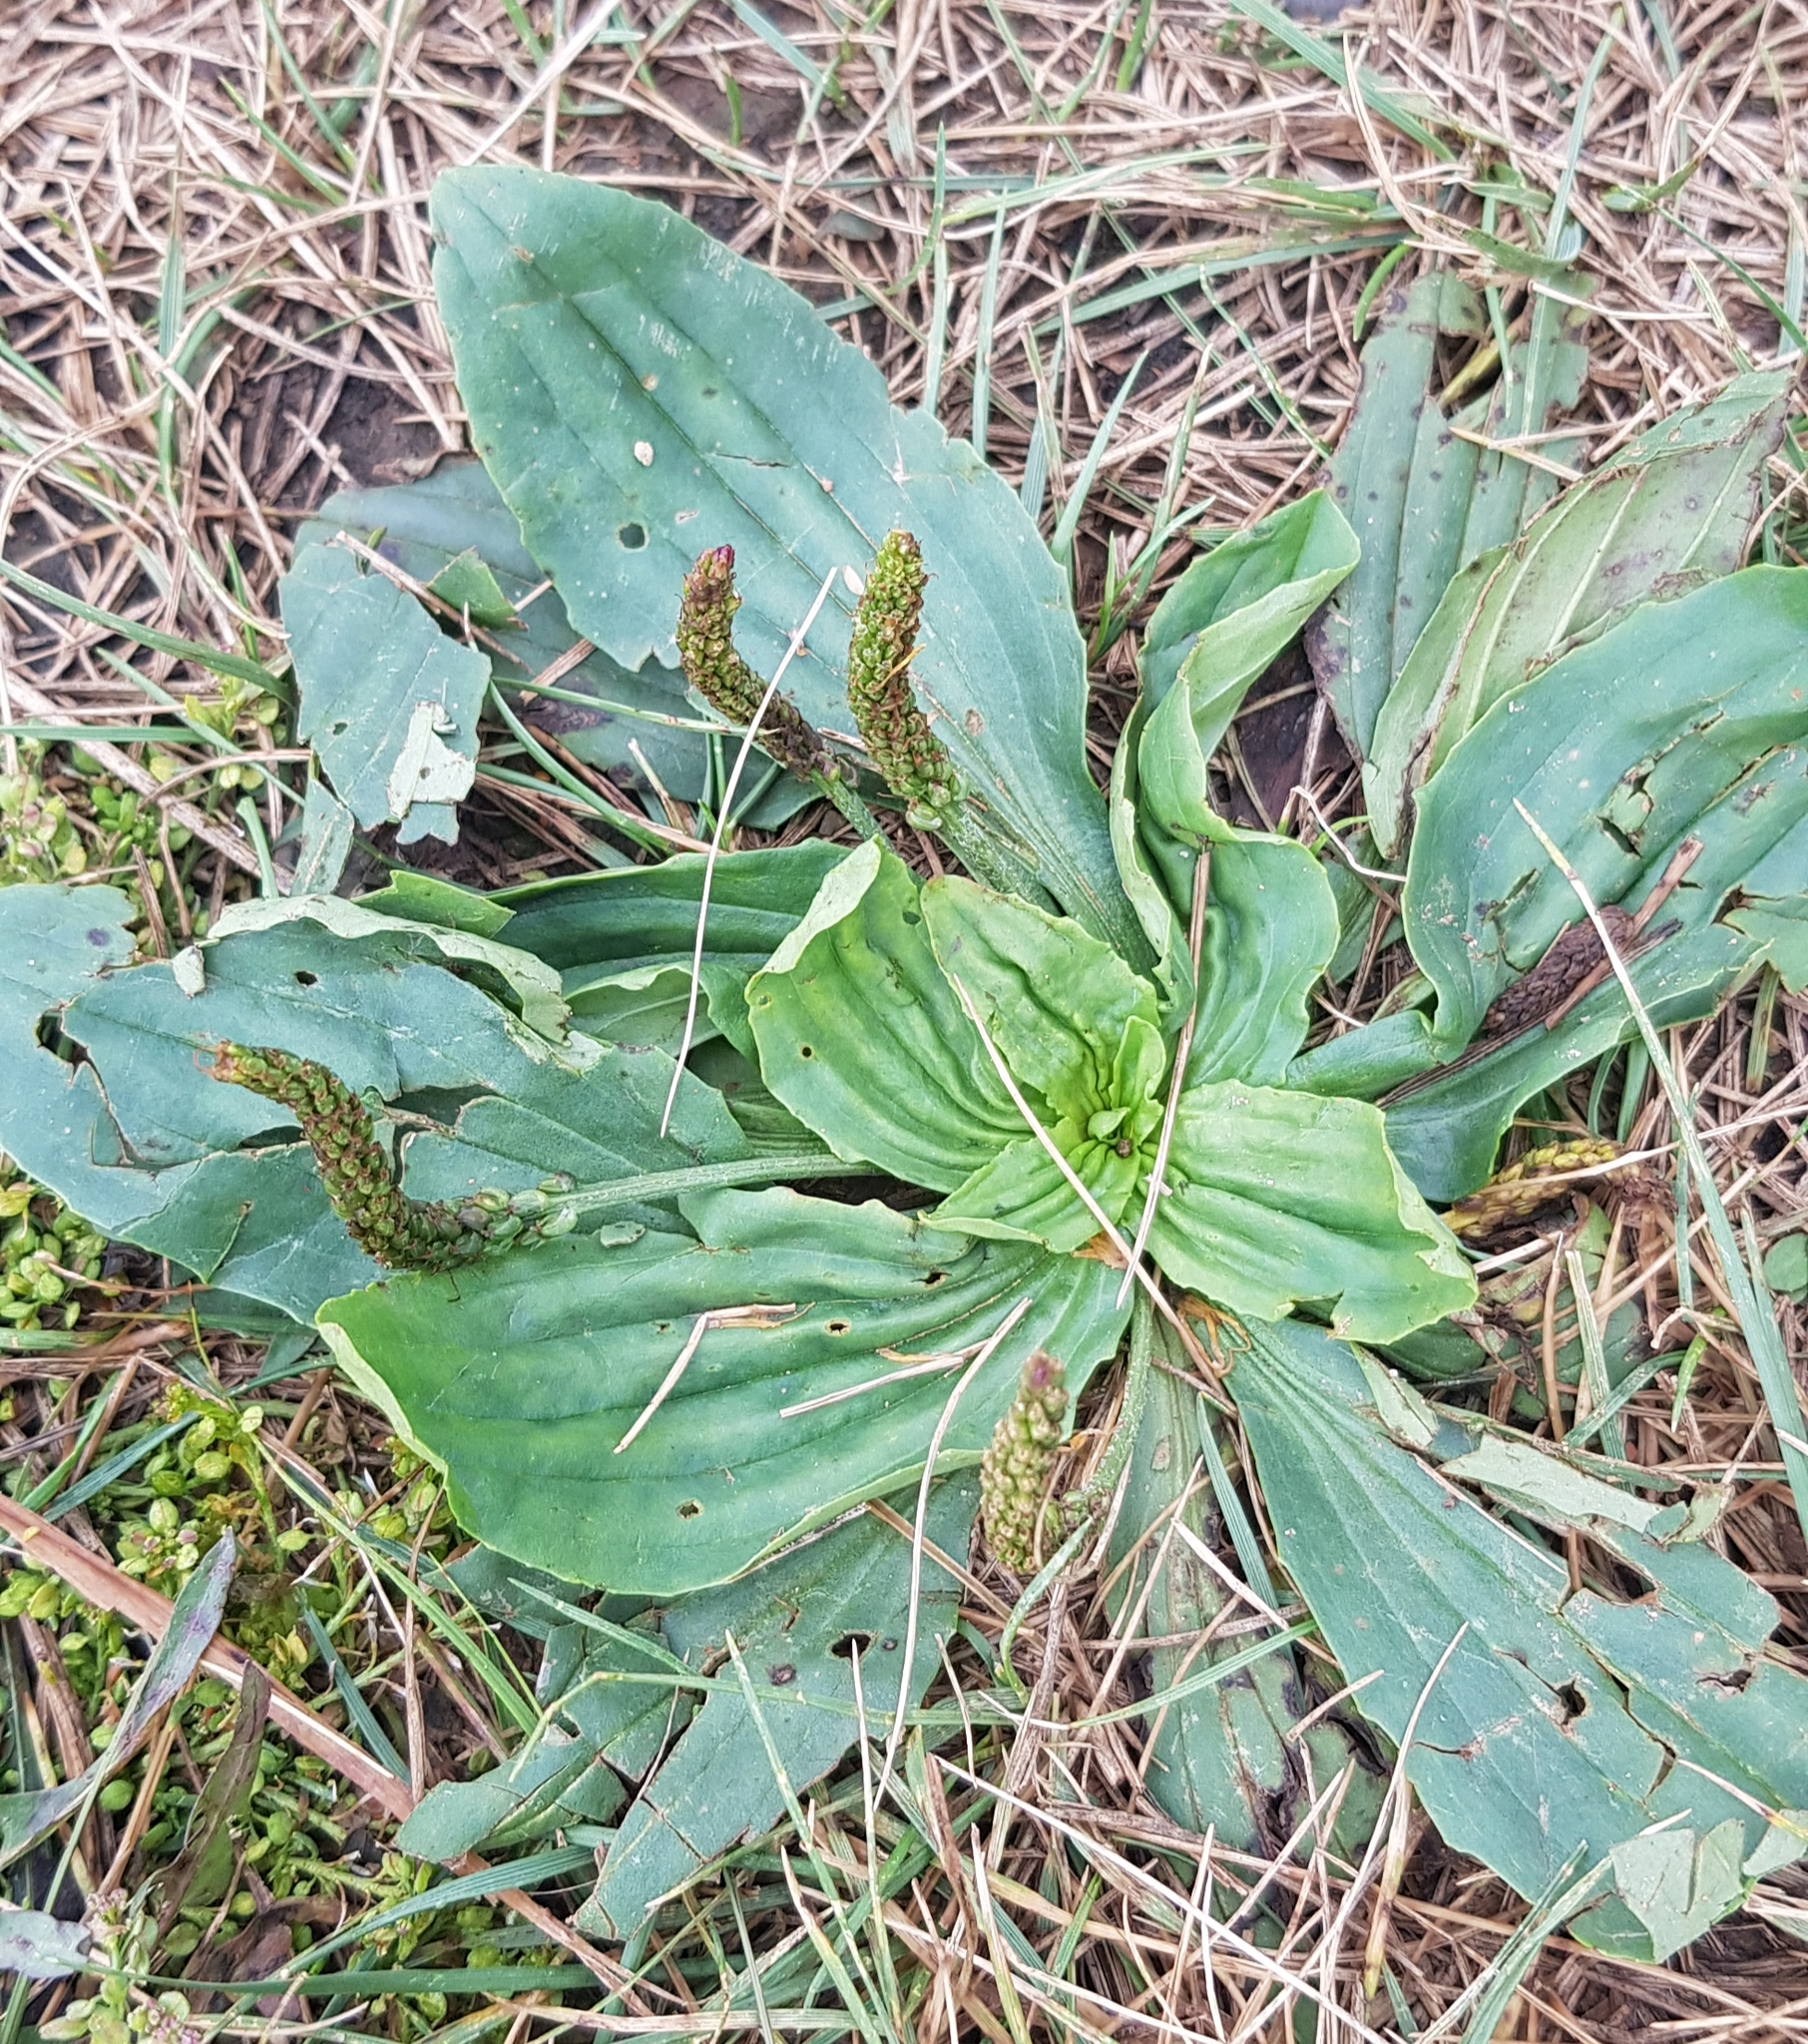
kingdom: Plantae
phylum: Tracheophyta
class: Magnoliopsida
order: Lamiales
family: Plantaginaceae
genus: Plantago
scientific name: Plantago depressa
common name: Depressed plantain
